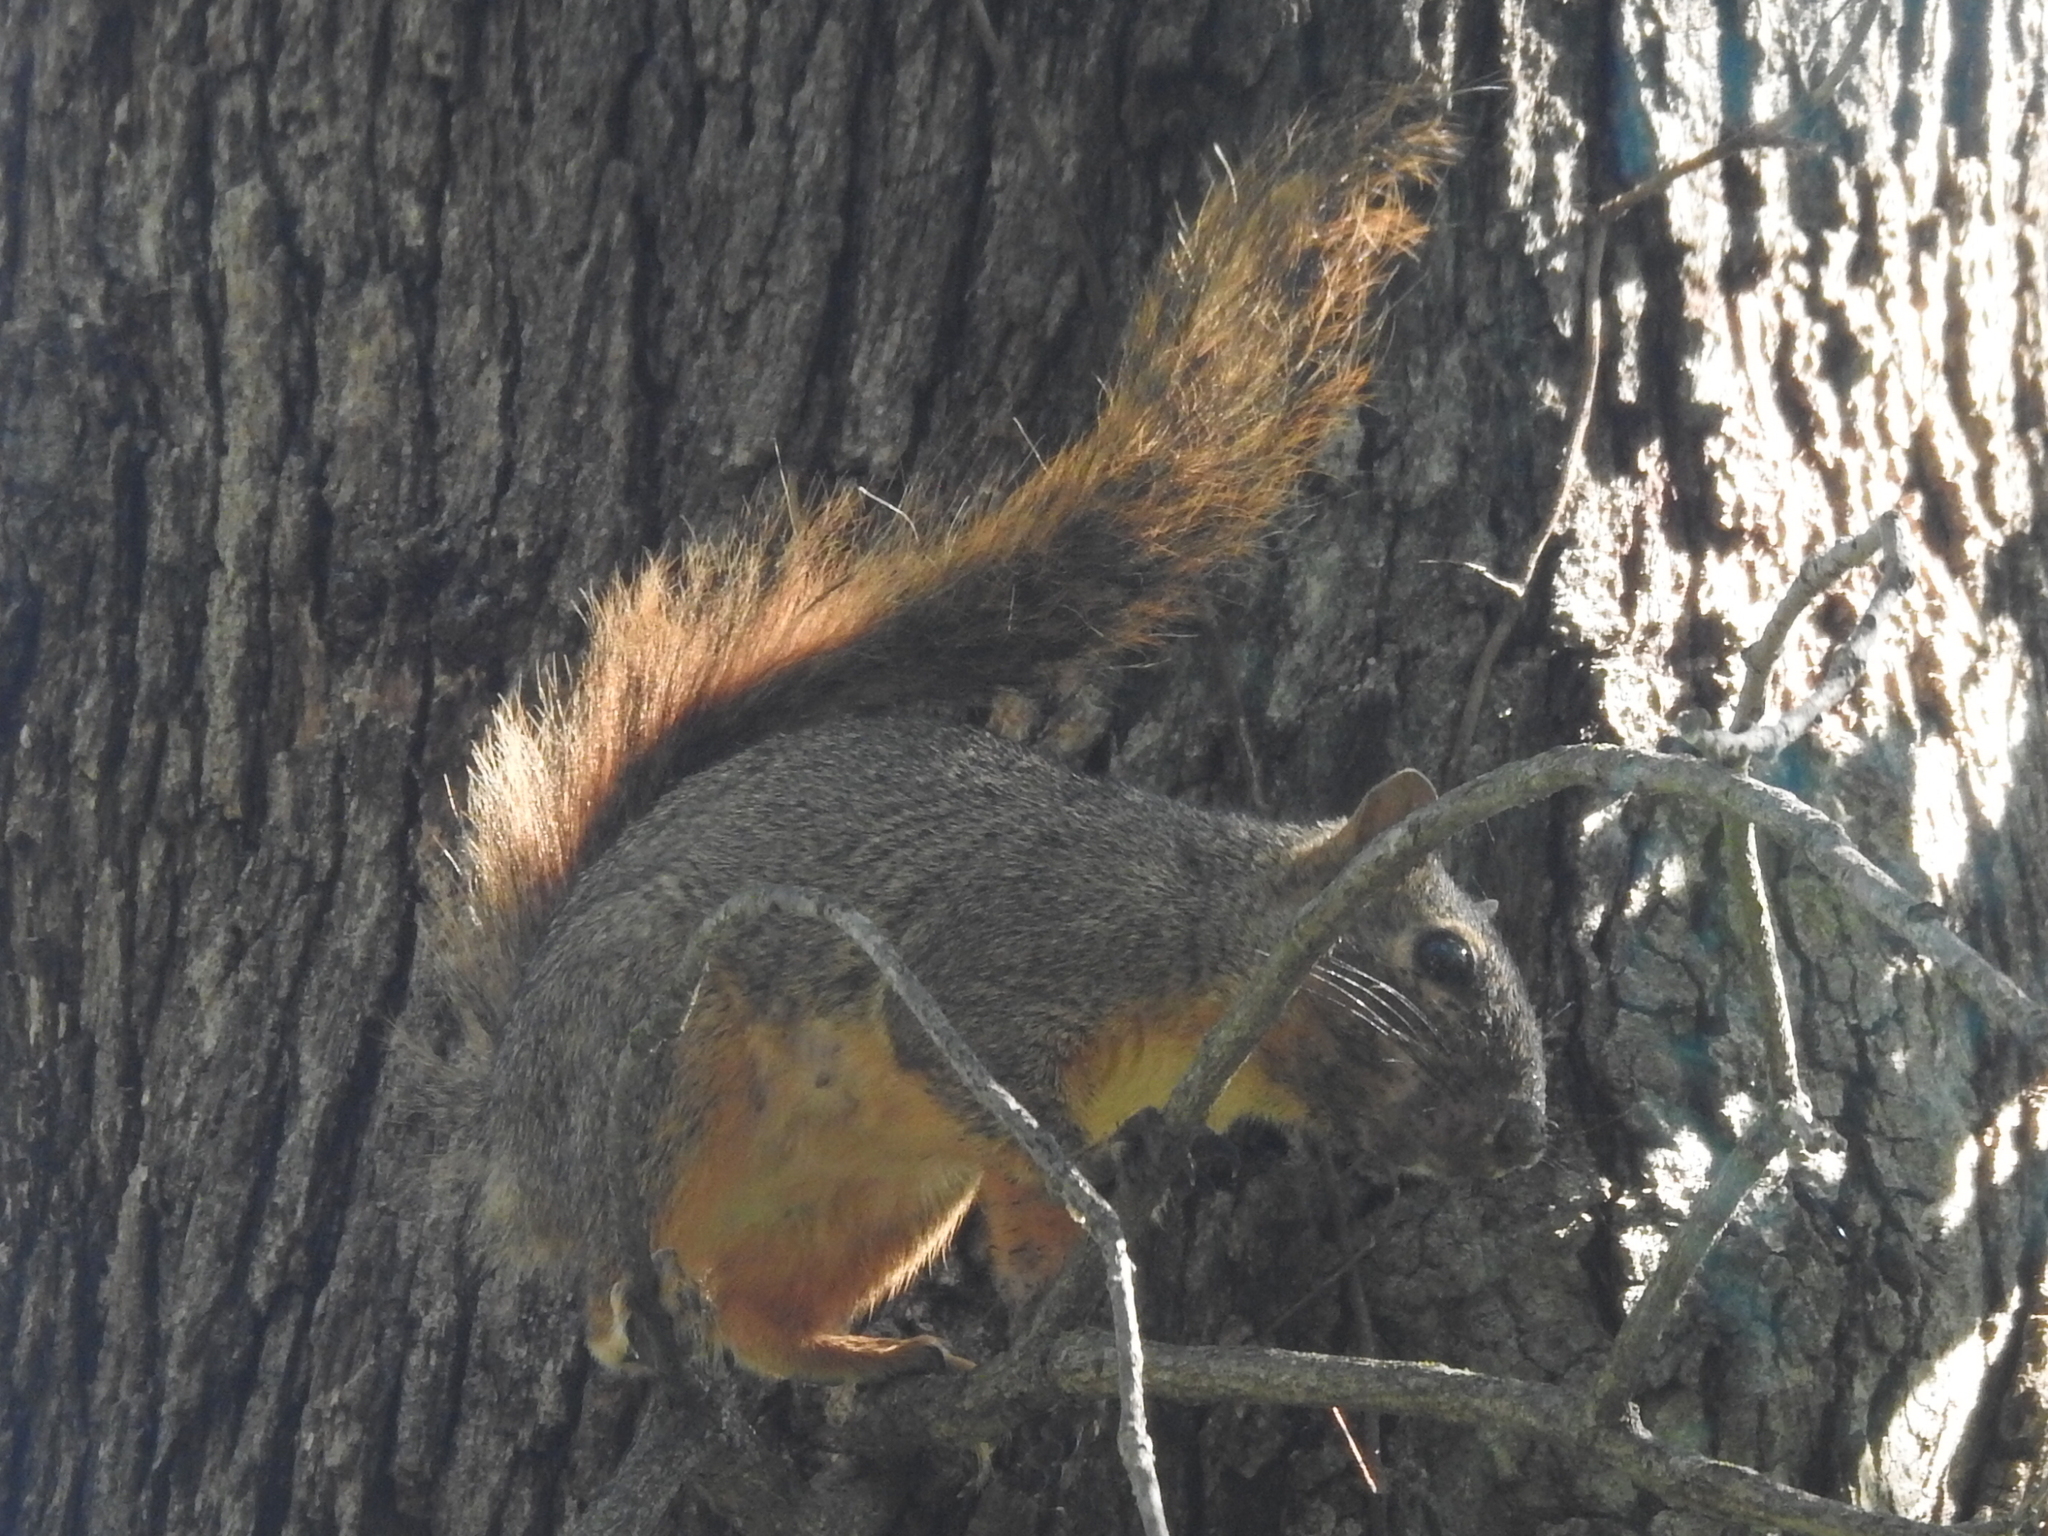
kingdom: Animalia
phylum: Chordata
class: Mammalia
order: Rodentia
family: Sciuridae
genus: Sciurus
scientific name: Sciurus niger
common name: Fox squirrel
